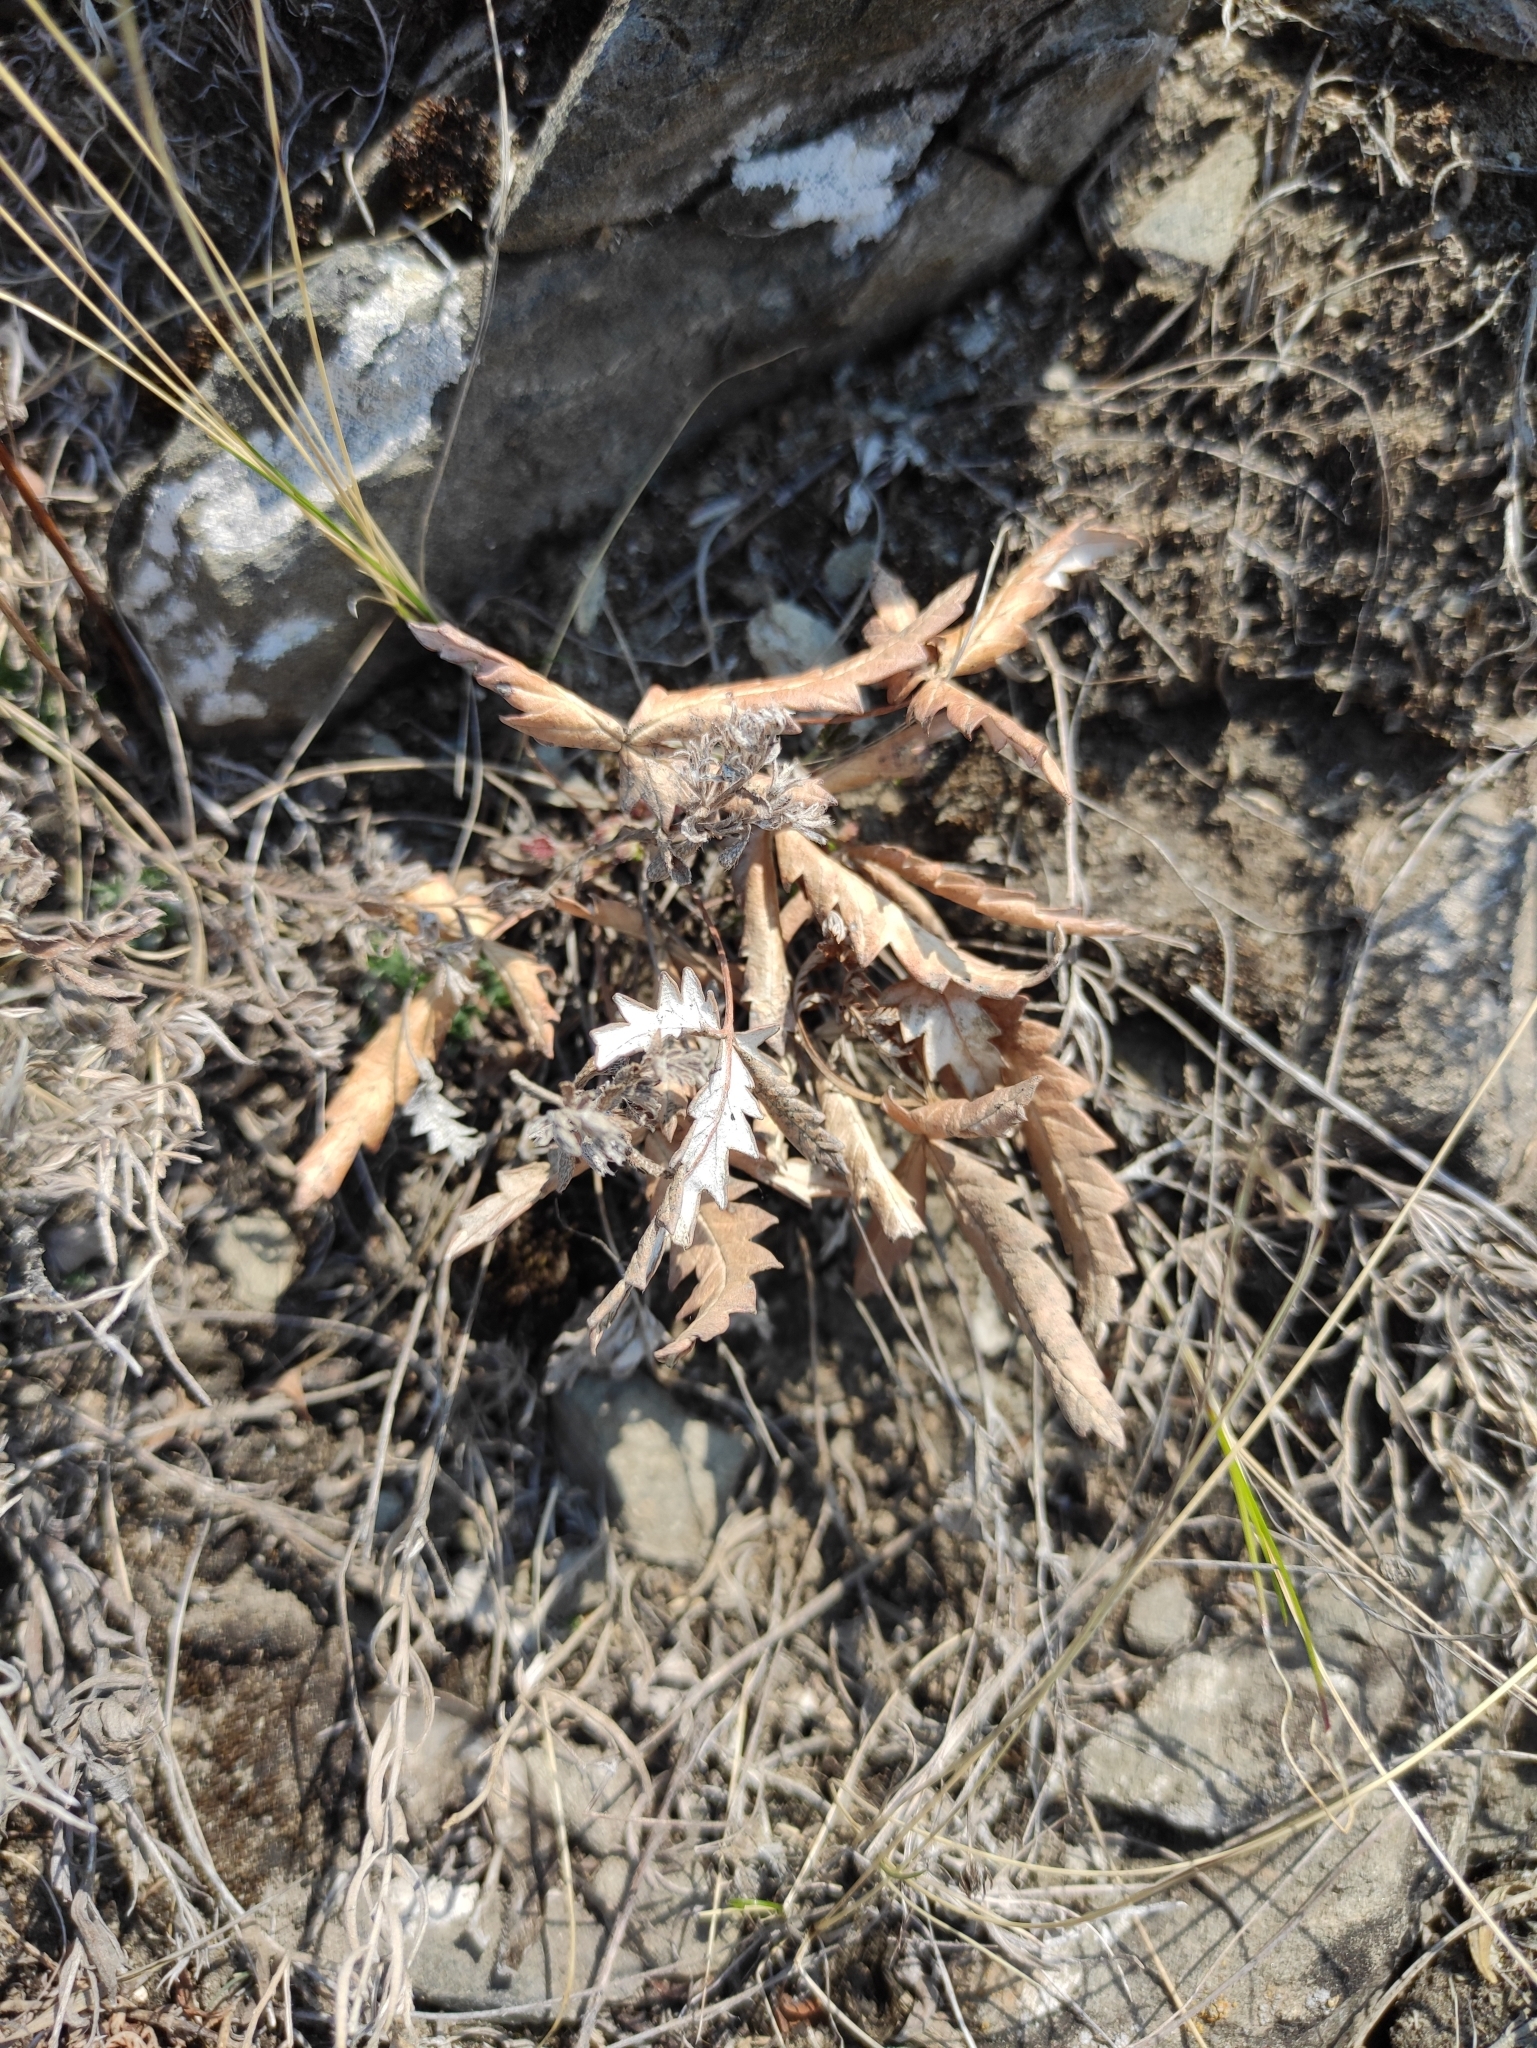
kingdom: Plantae
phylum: Tracheophyta
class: Magnoliopsida
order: Rosales
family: Rosaceae
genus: Potentilla
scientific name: Potentilla
